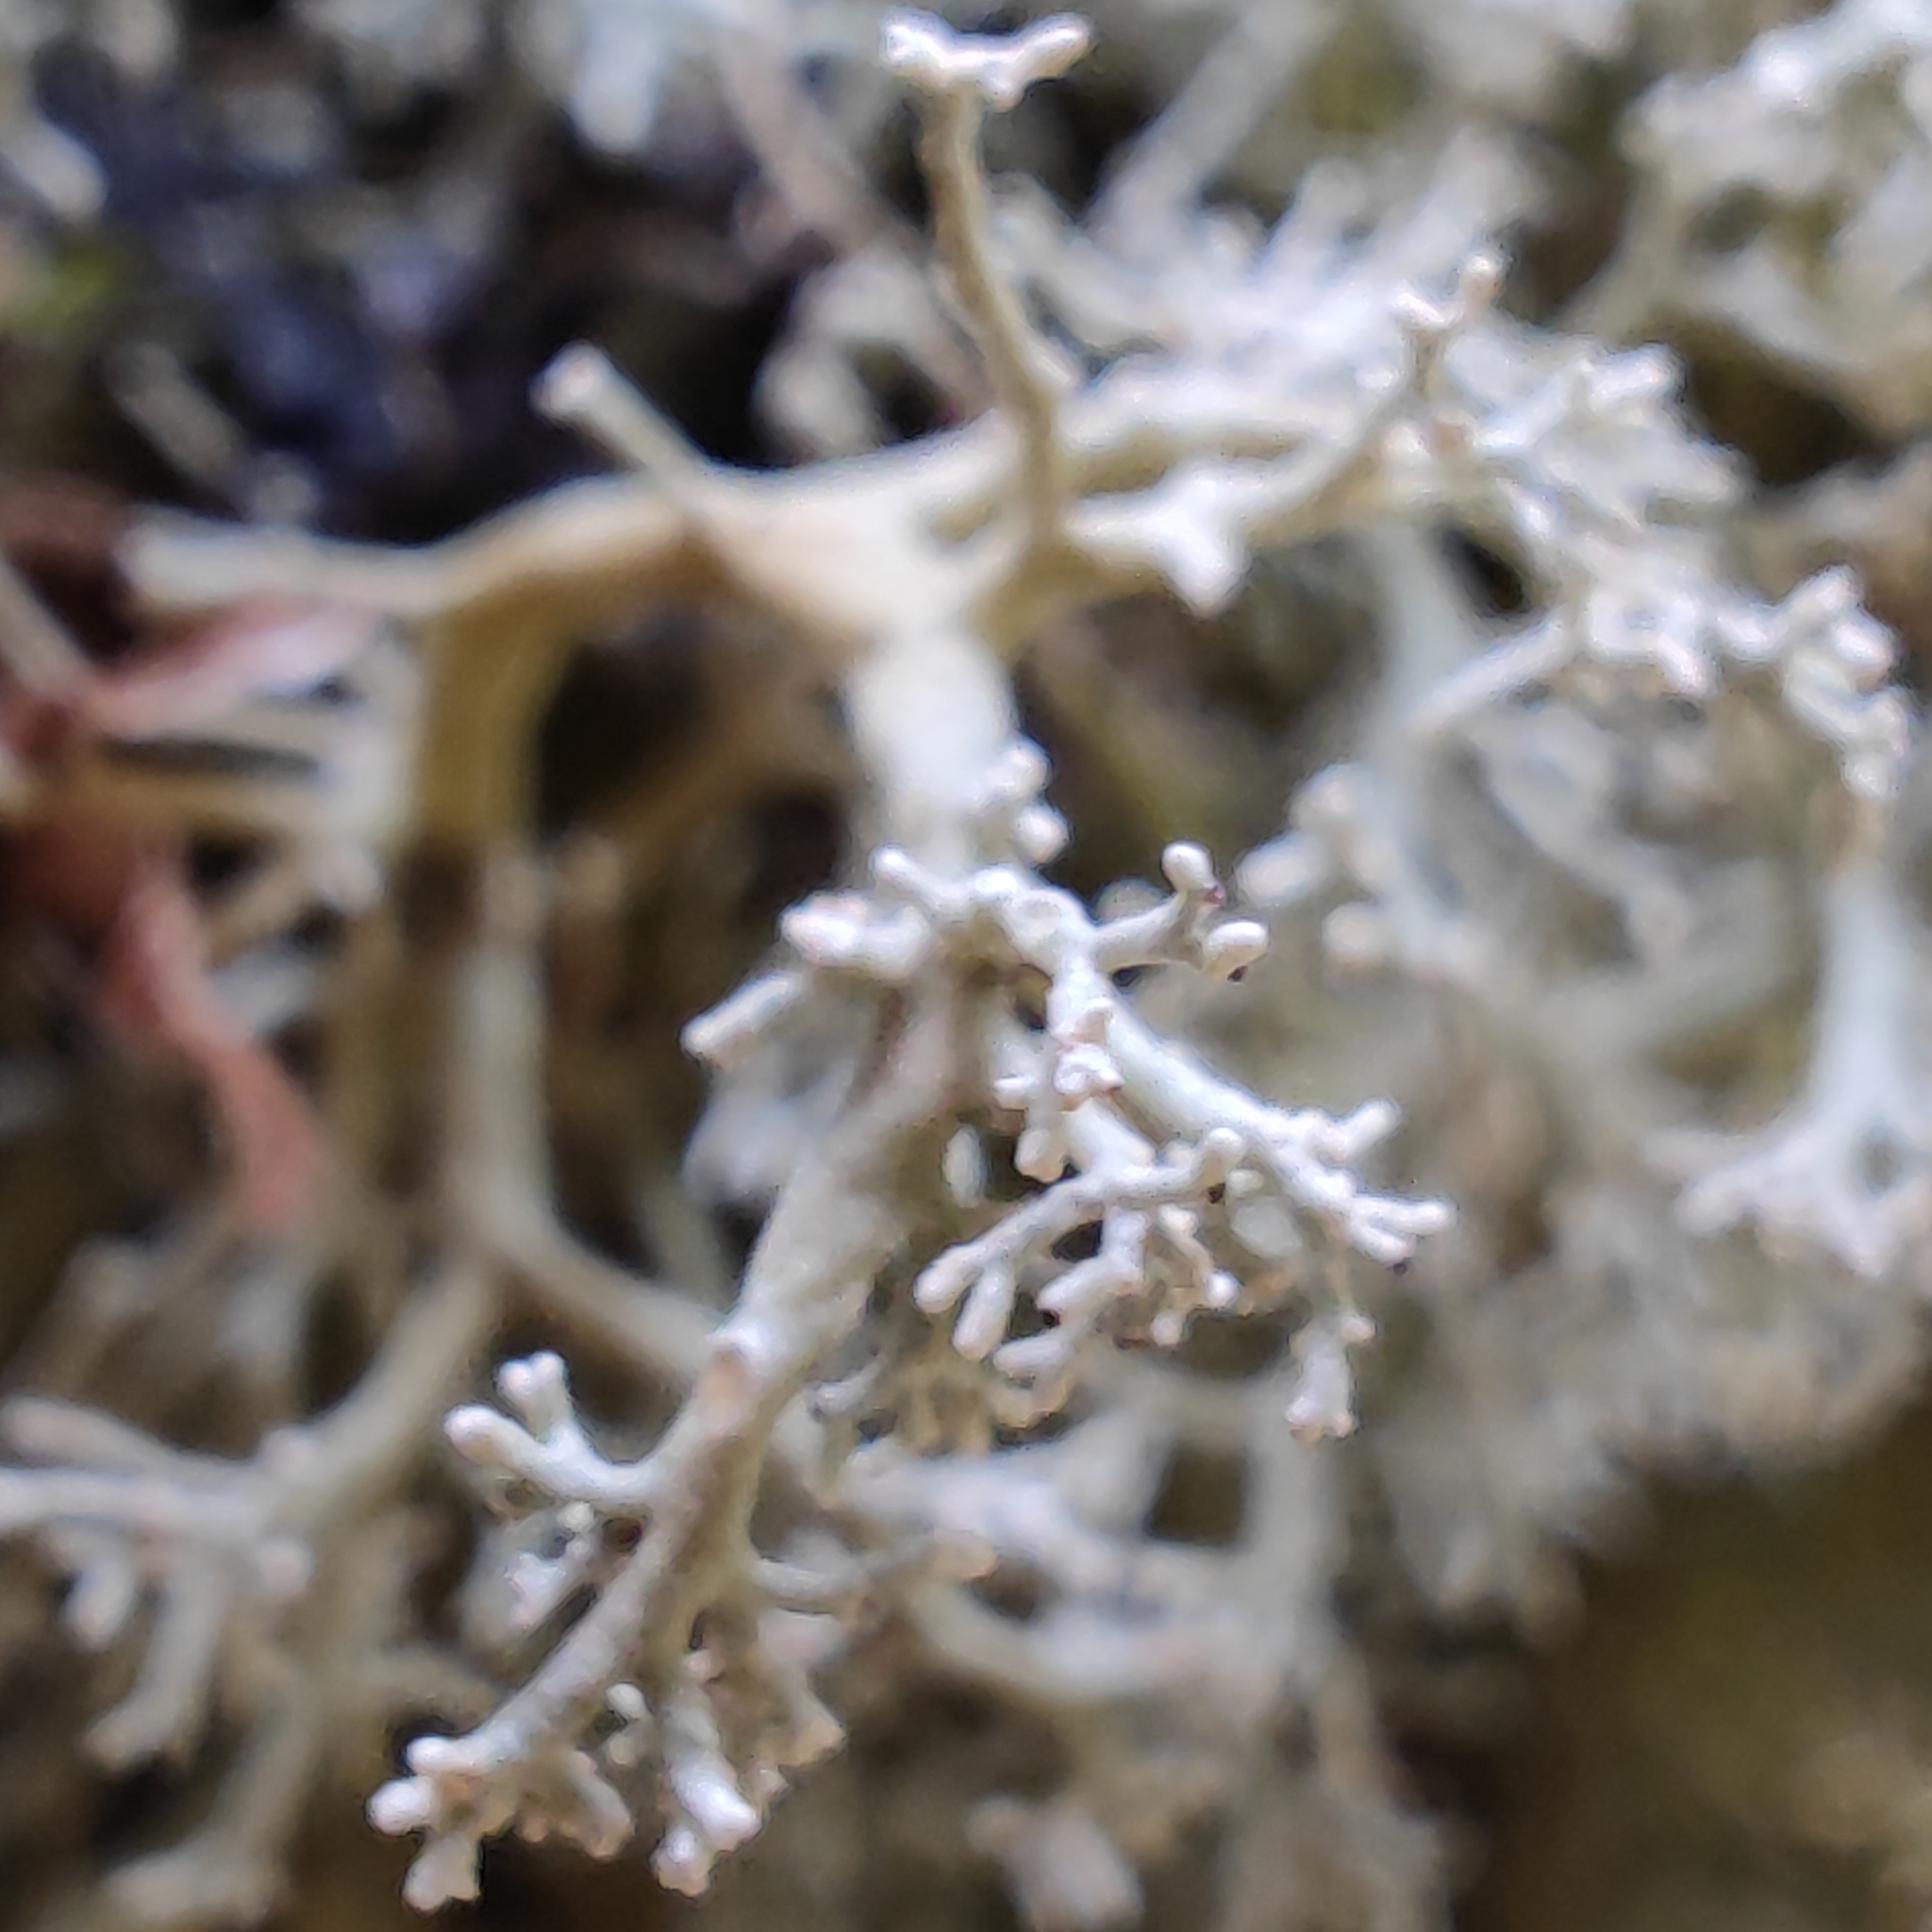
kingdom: Fungi
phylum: Ascomycota
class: Lecanoromycetes
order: Lecanorales
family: Sphaerophoraceae
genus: Sphaerophorus
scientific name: Sphaerophorus globosus
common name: Globe ball lichen
